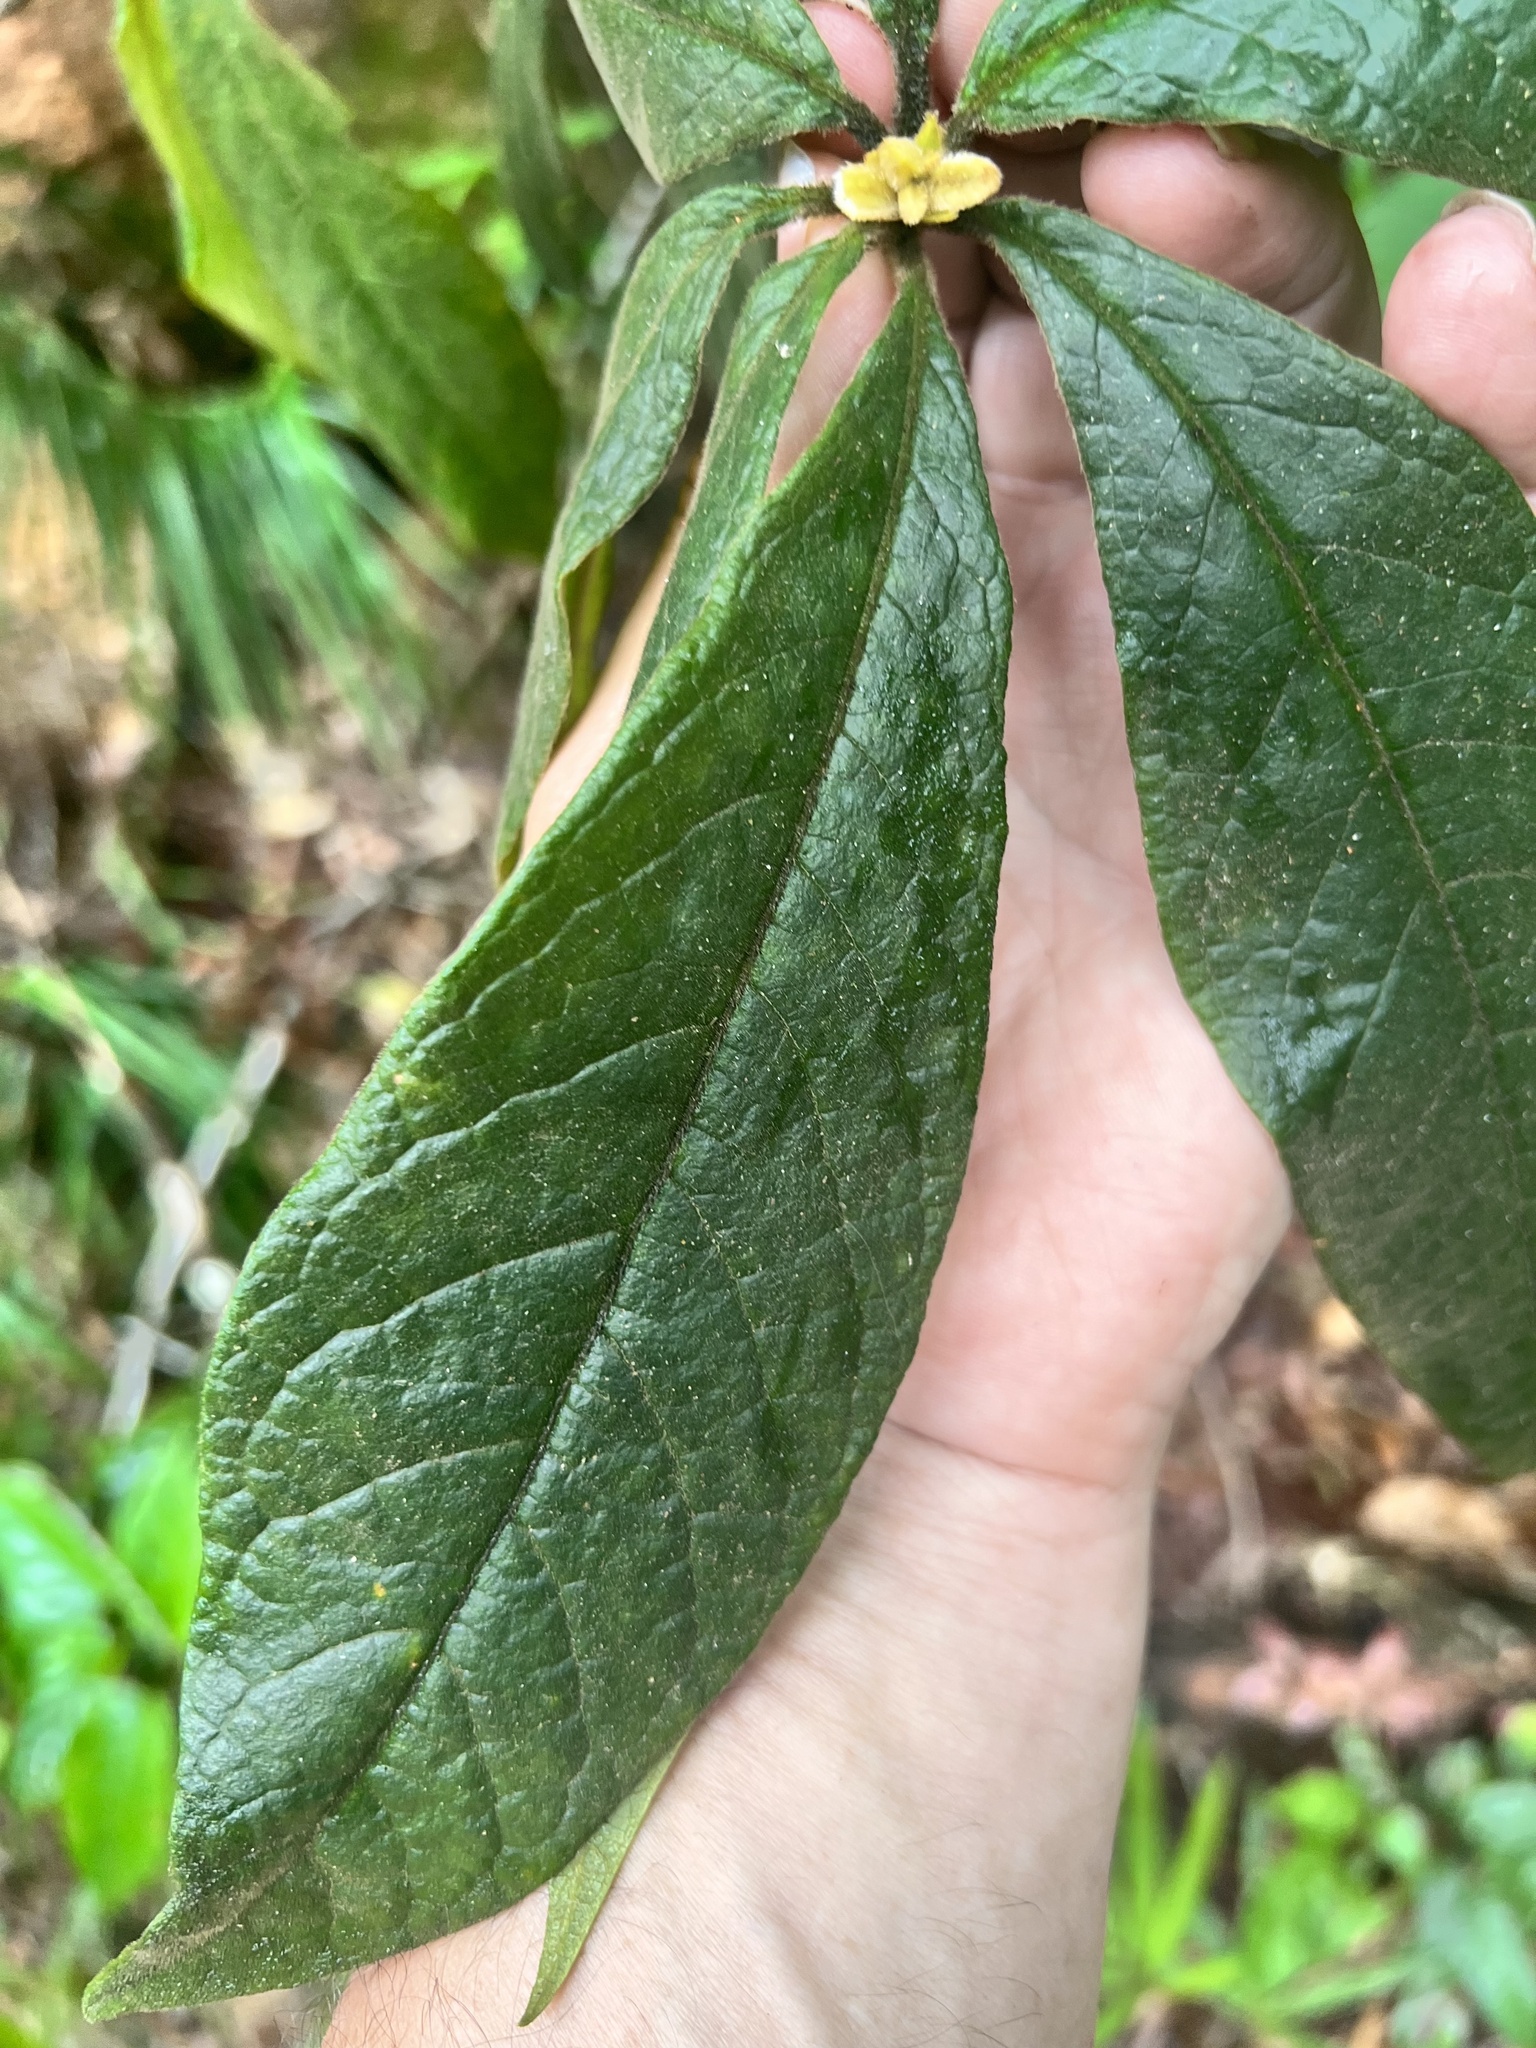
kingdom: Plantae
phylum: Tracheophyta
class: Magnoliopsida
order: Apiales
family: Pittosporaceae
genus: Pittosporum
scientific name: Pittosporum rubiginosum
